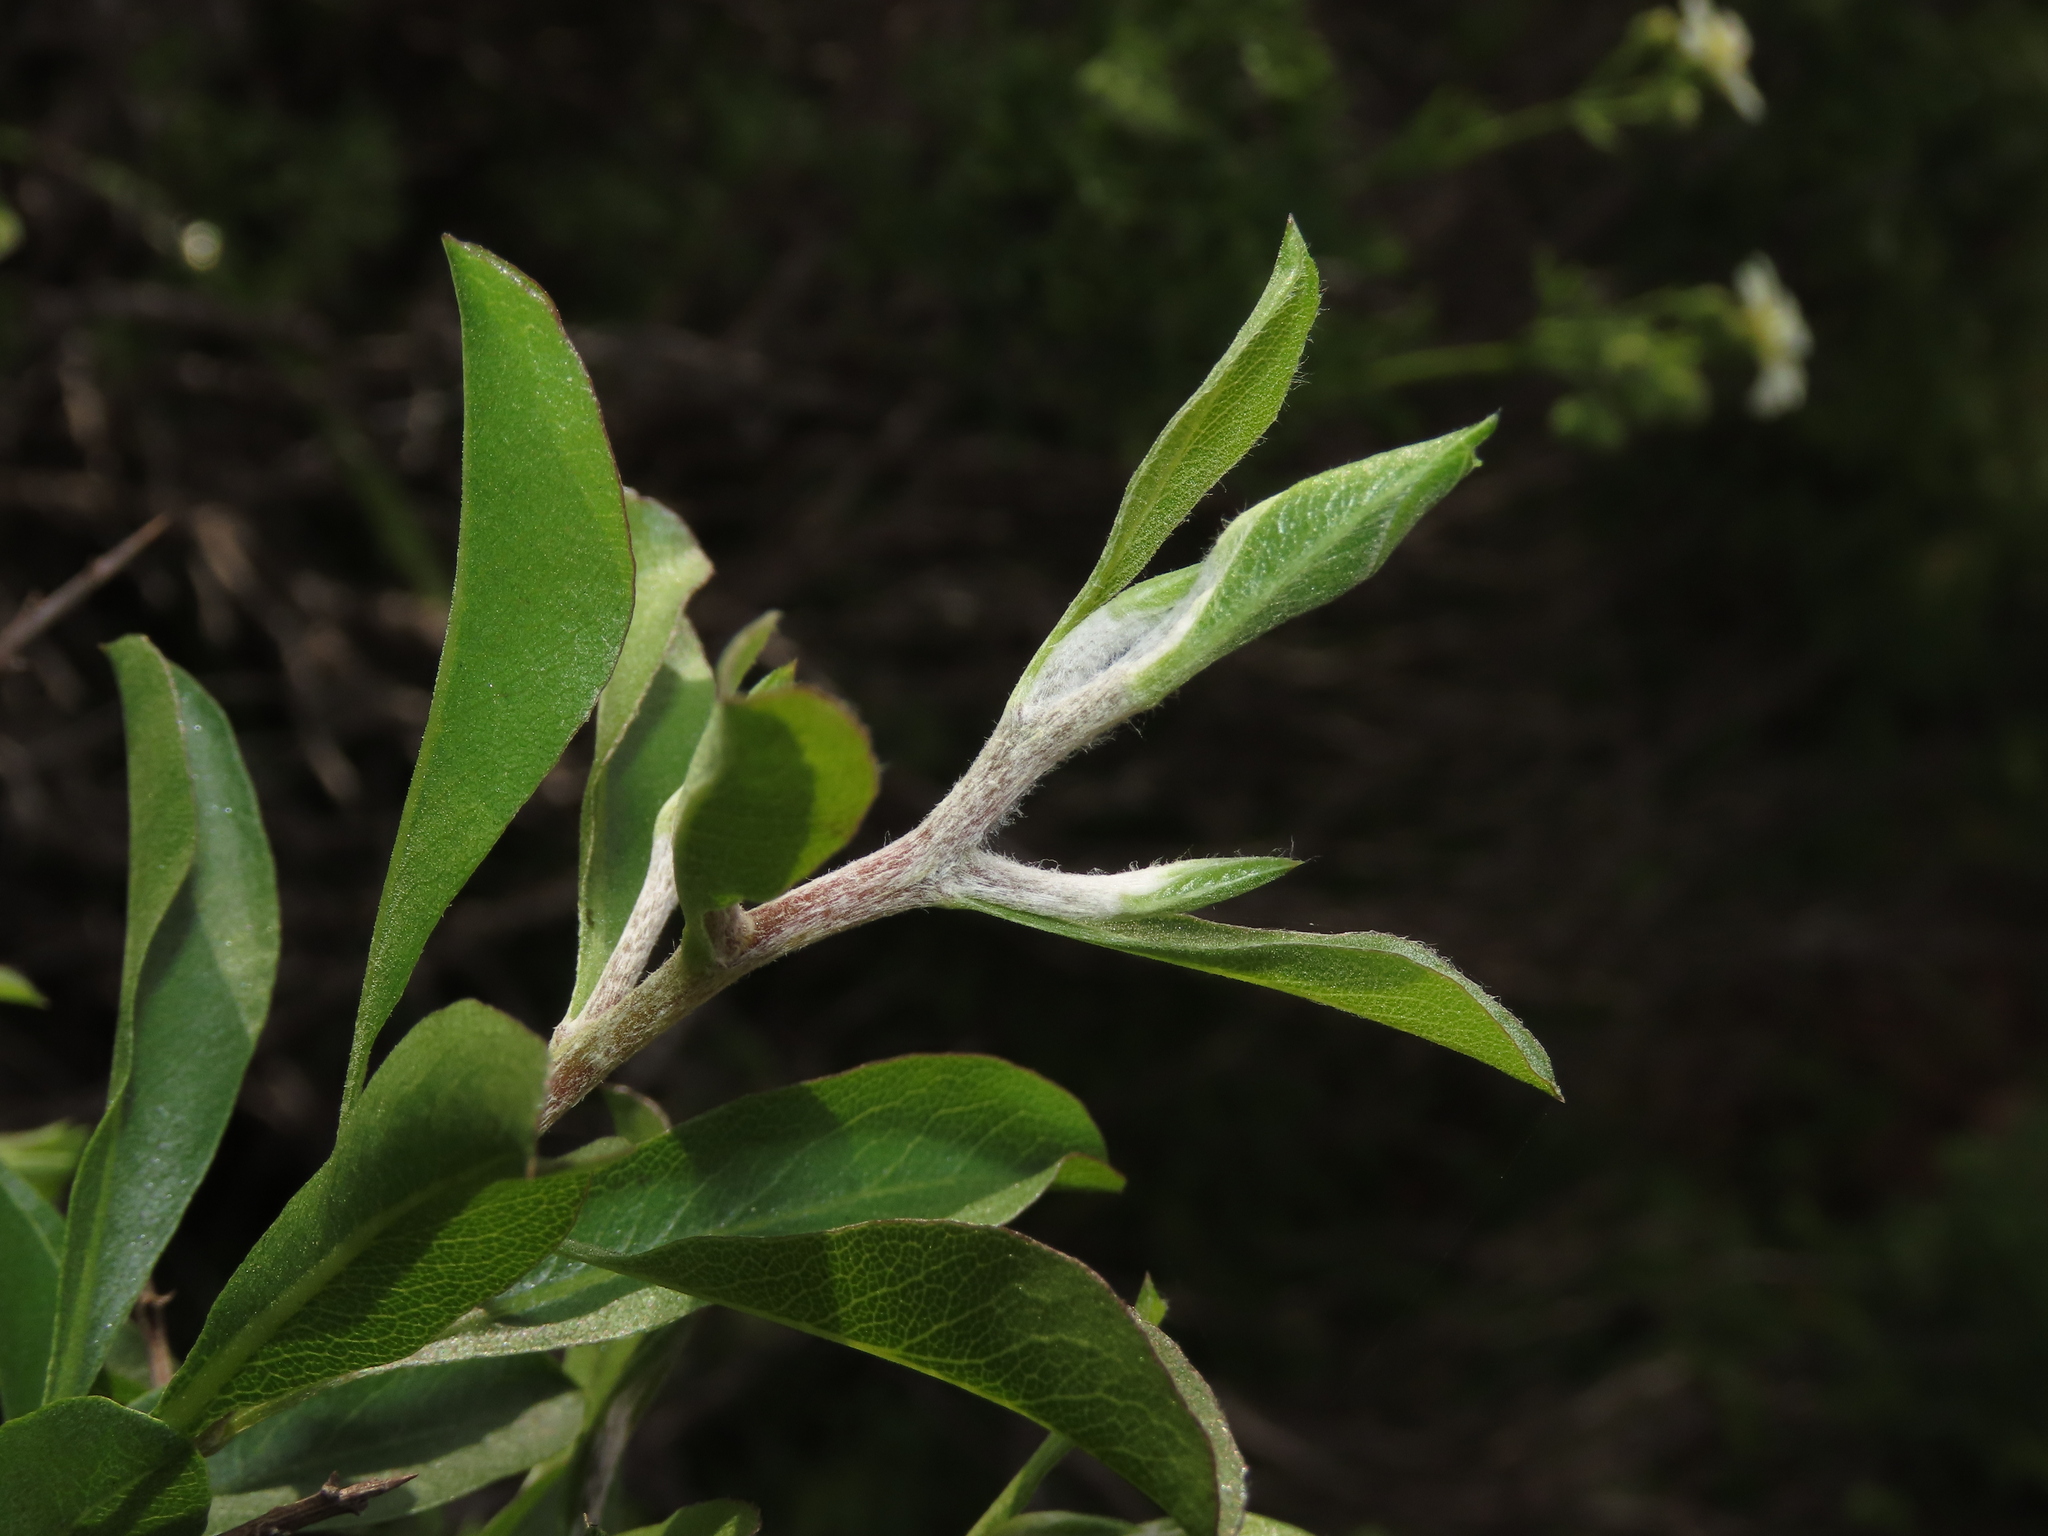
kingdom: Plantae
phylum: Tracheophyta
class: Magnoliopsida
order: Asterales
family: Asteraceae
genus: Proustia
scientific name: Proustia cuneifolia
